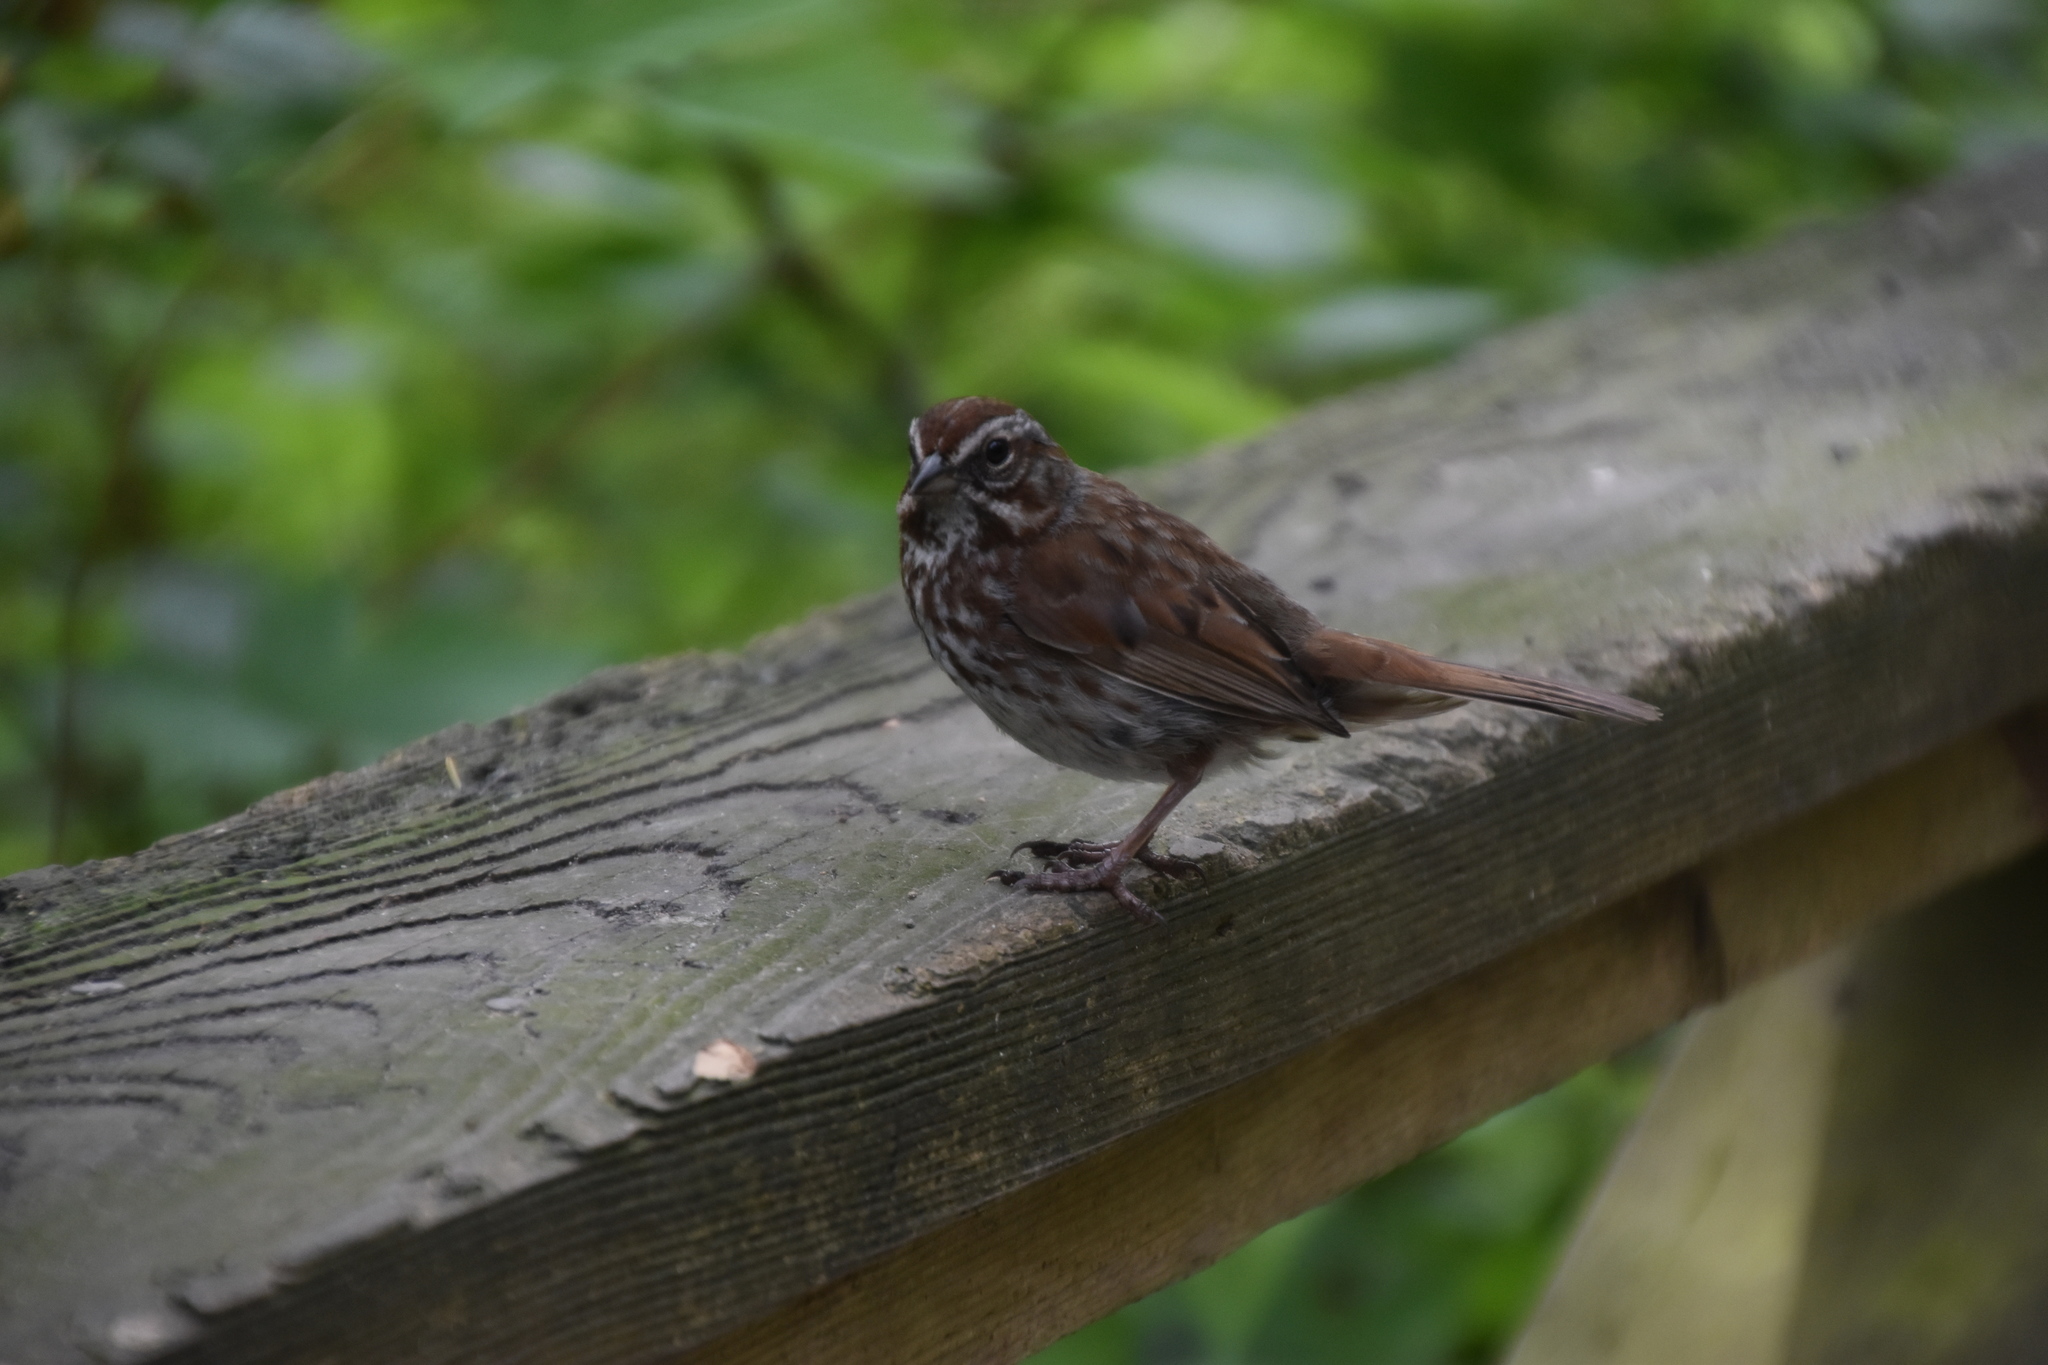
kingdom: Animalia
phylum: Chordata
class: Aves
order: Passeriformes
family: Passerellidae
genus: Melospiza
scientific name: Melospiza melodia
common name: Song sparrow
